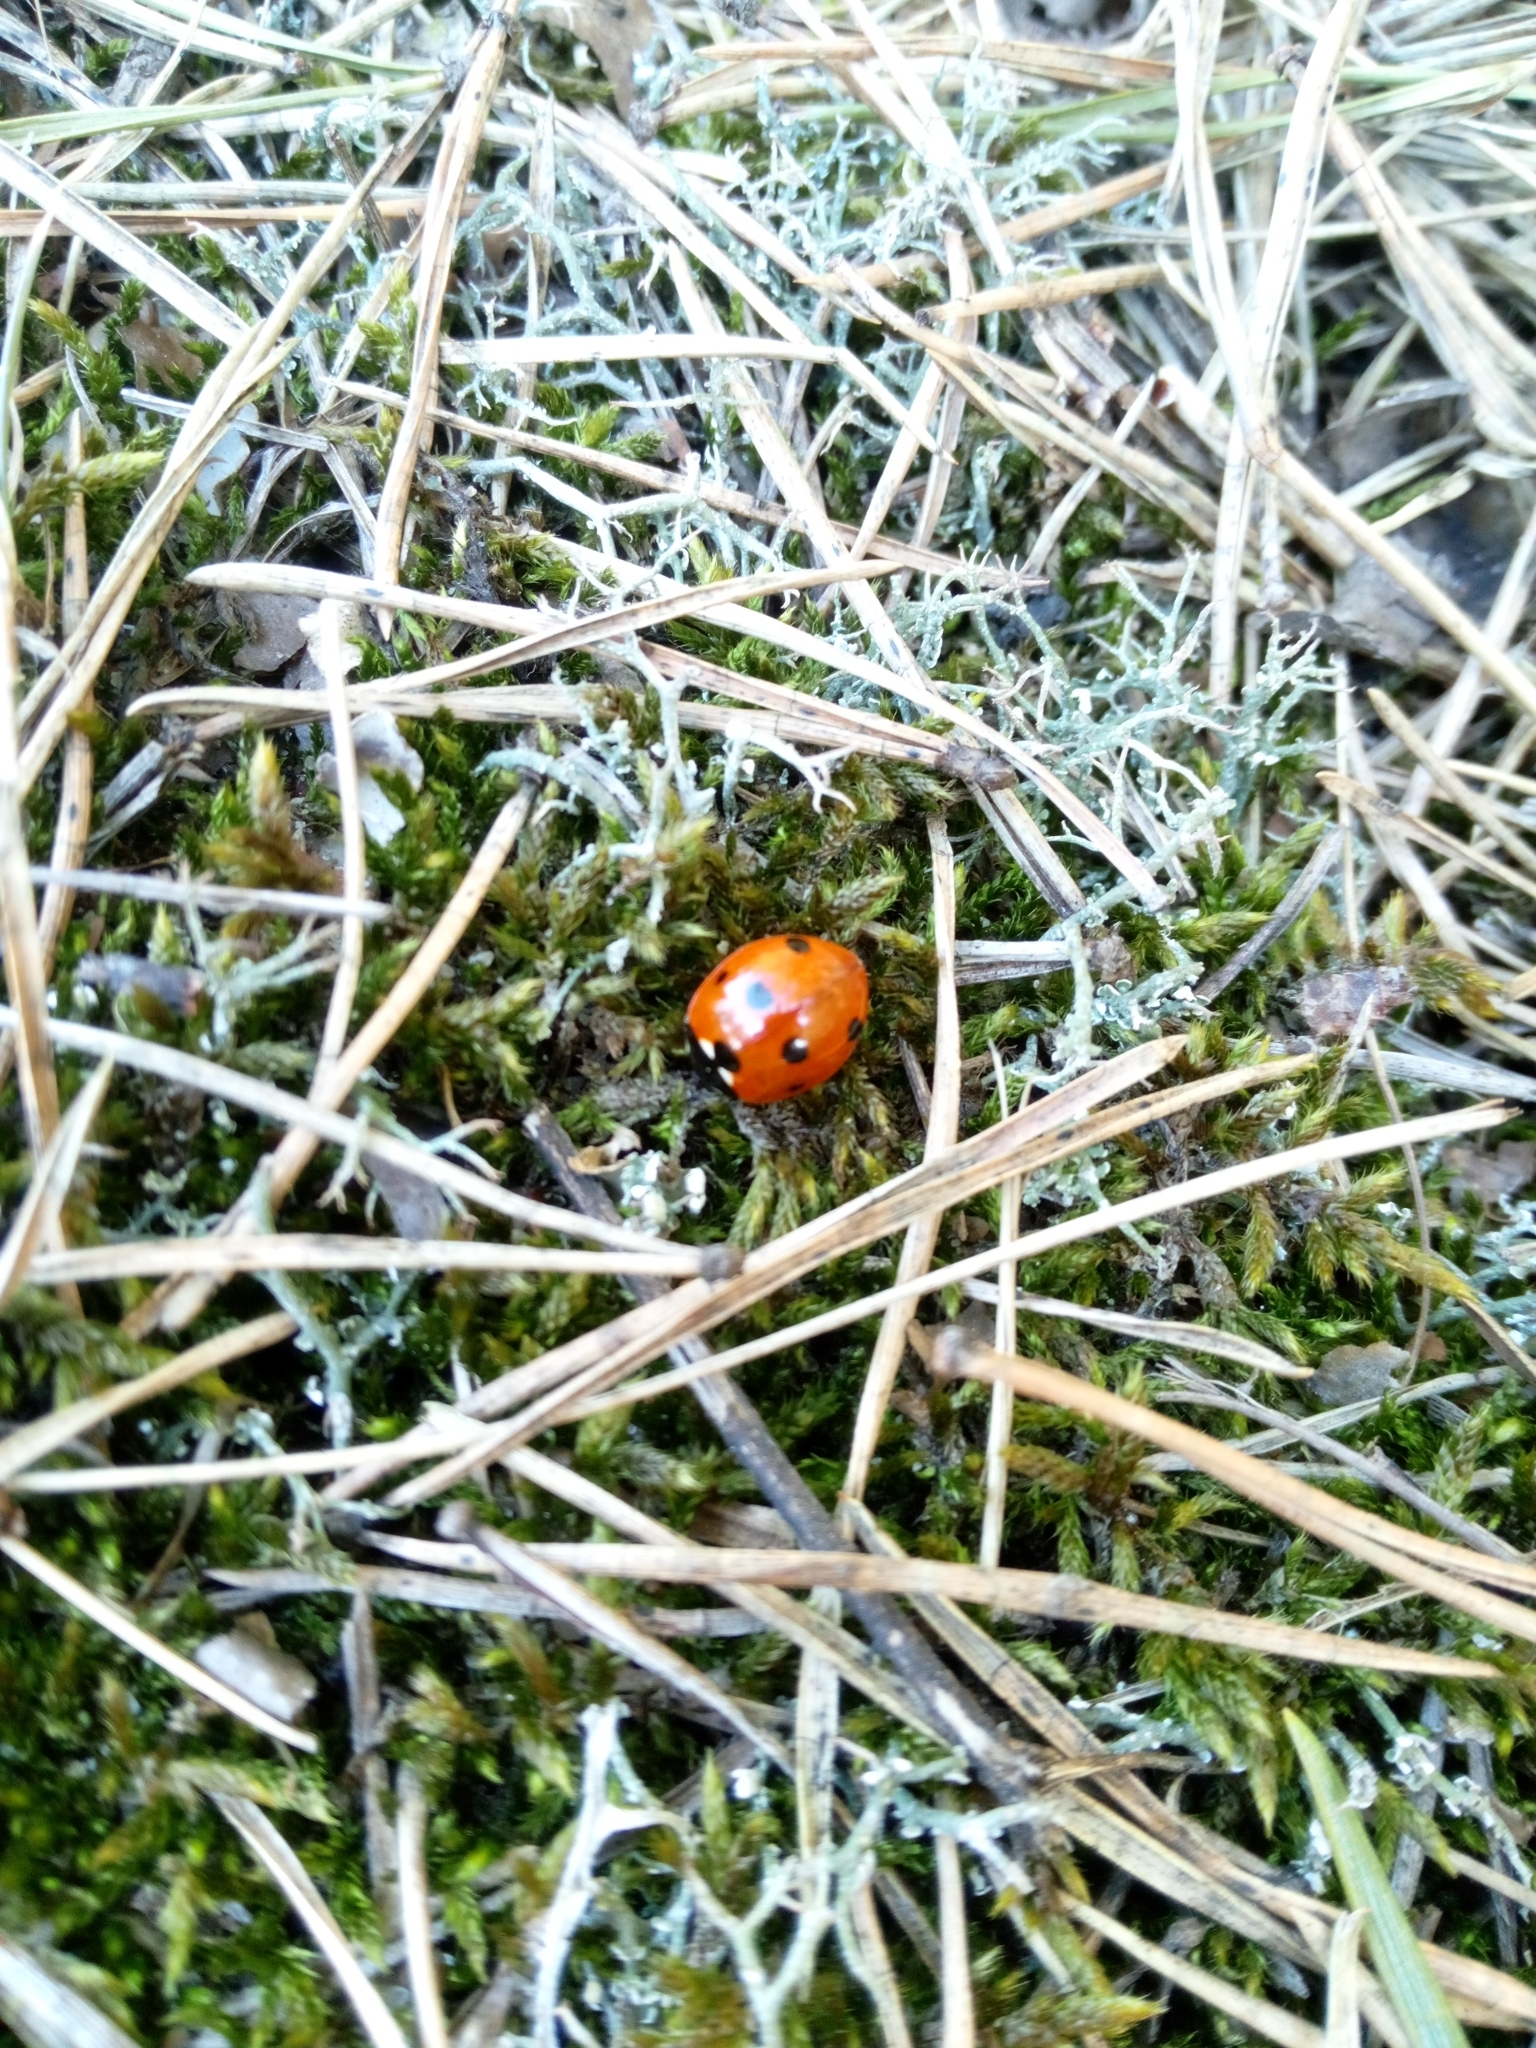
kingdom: Animalia
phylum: Arthropoda
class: Insecta
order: Coleoptera
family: Coccinellidae
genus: Coccinella
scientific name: Coccinella septempunctata
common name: Sevenspotted lady beetle
